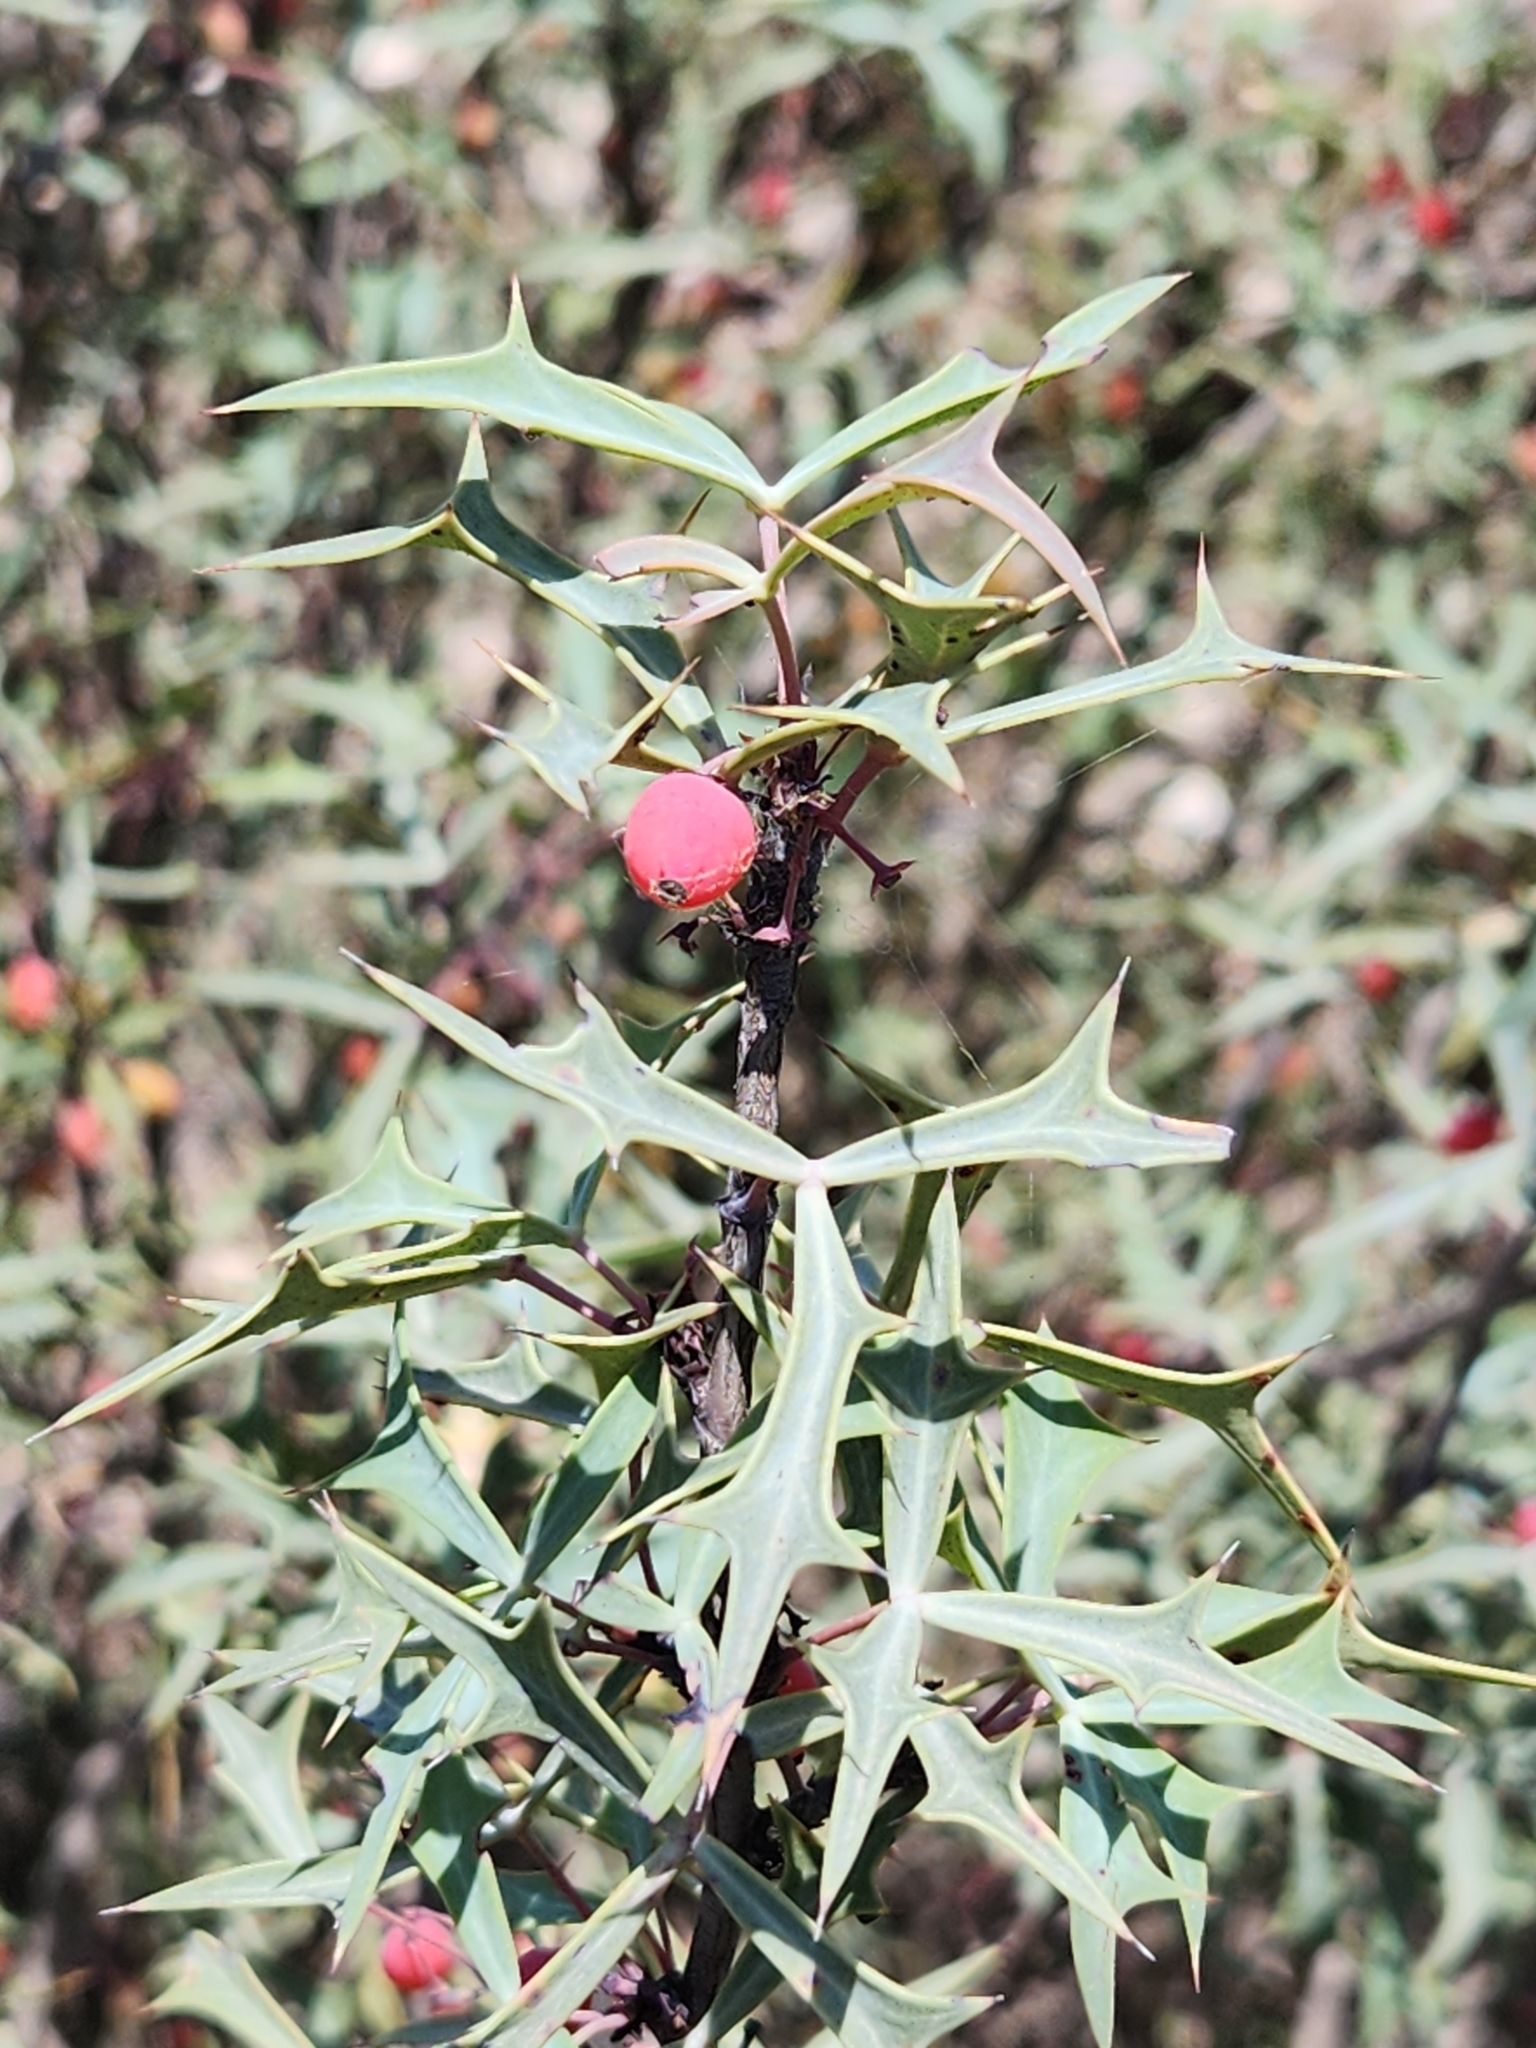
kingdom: Plantae
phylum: Tracheophyta
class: Magnoliopsida
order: Ranunculales
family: Berberidaceae
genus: Alloberberis
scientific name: Alloberberis trifoliolata
